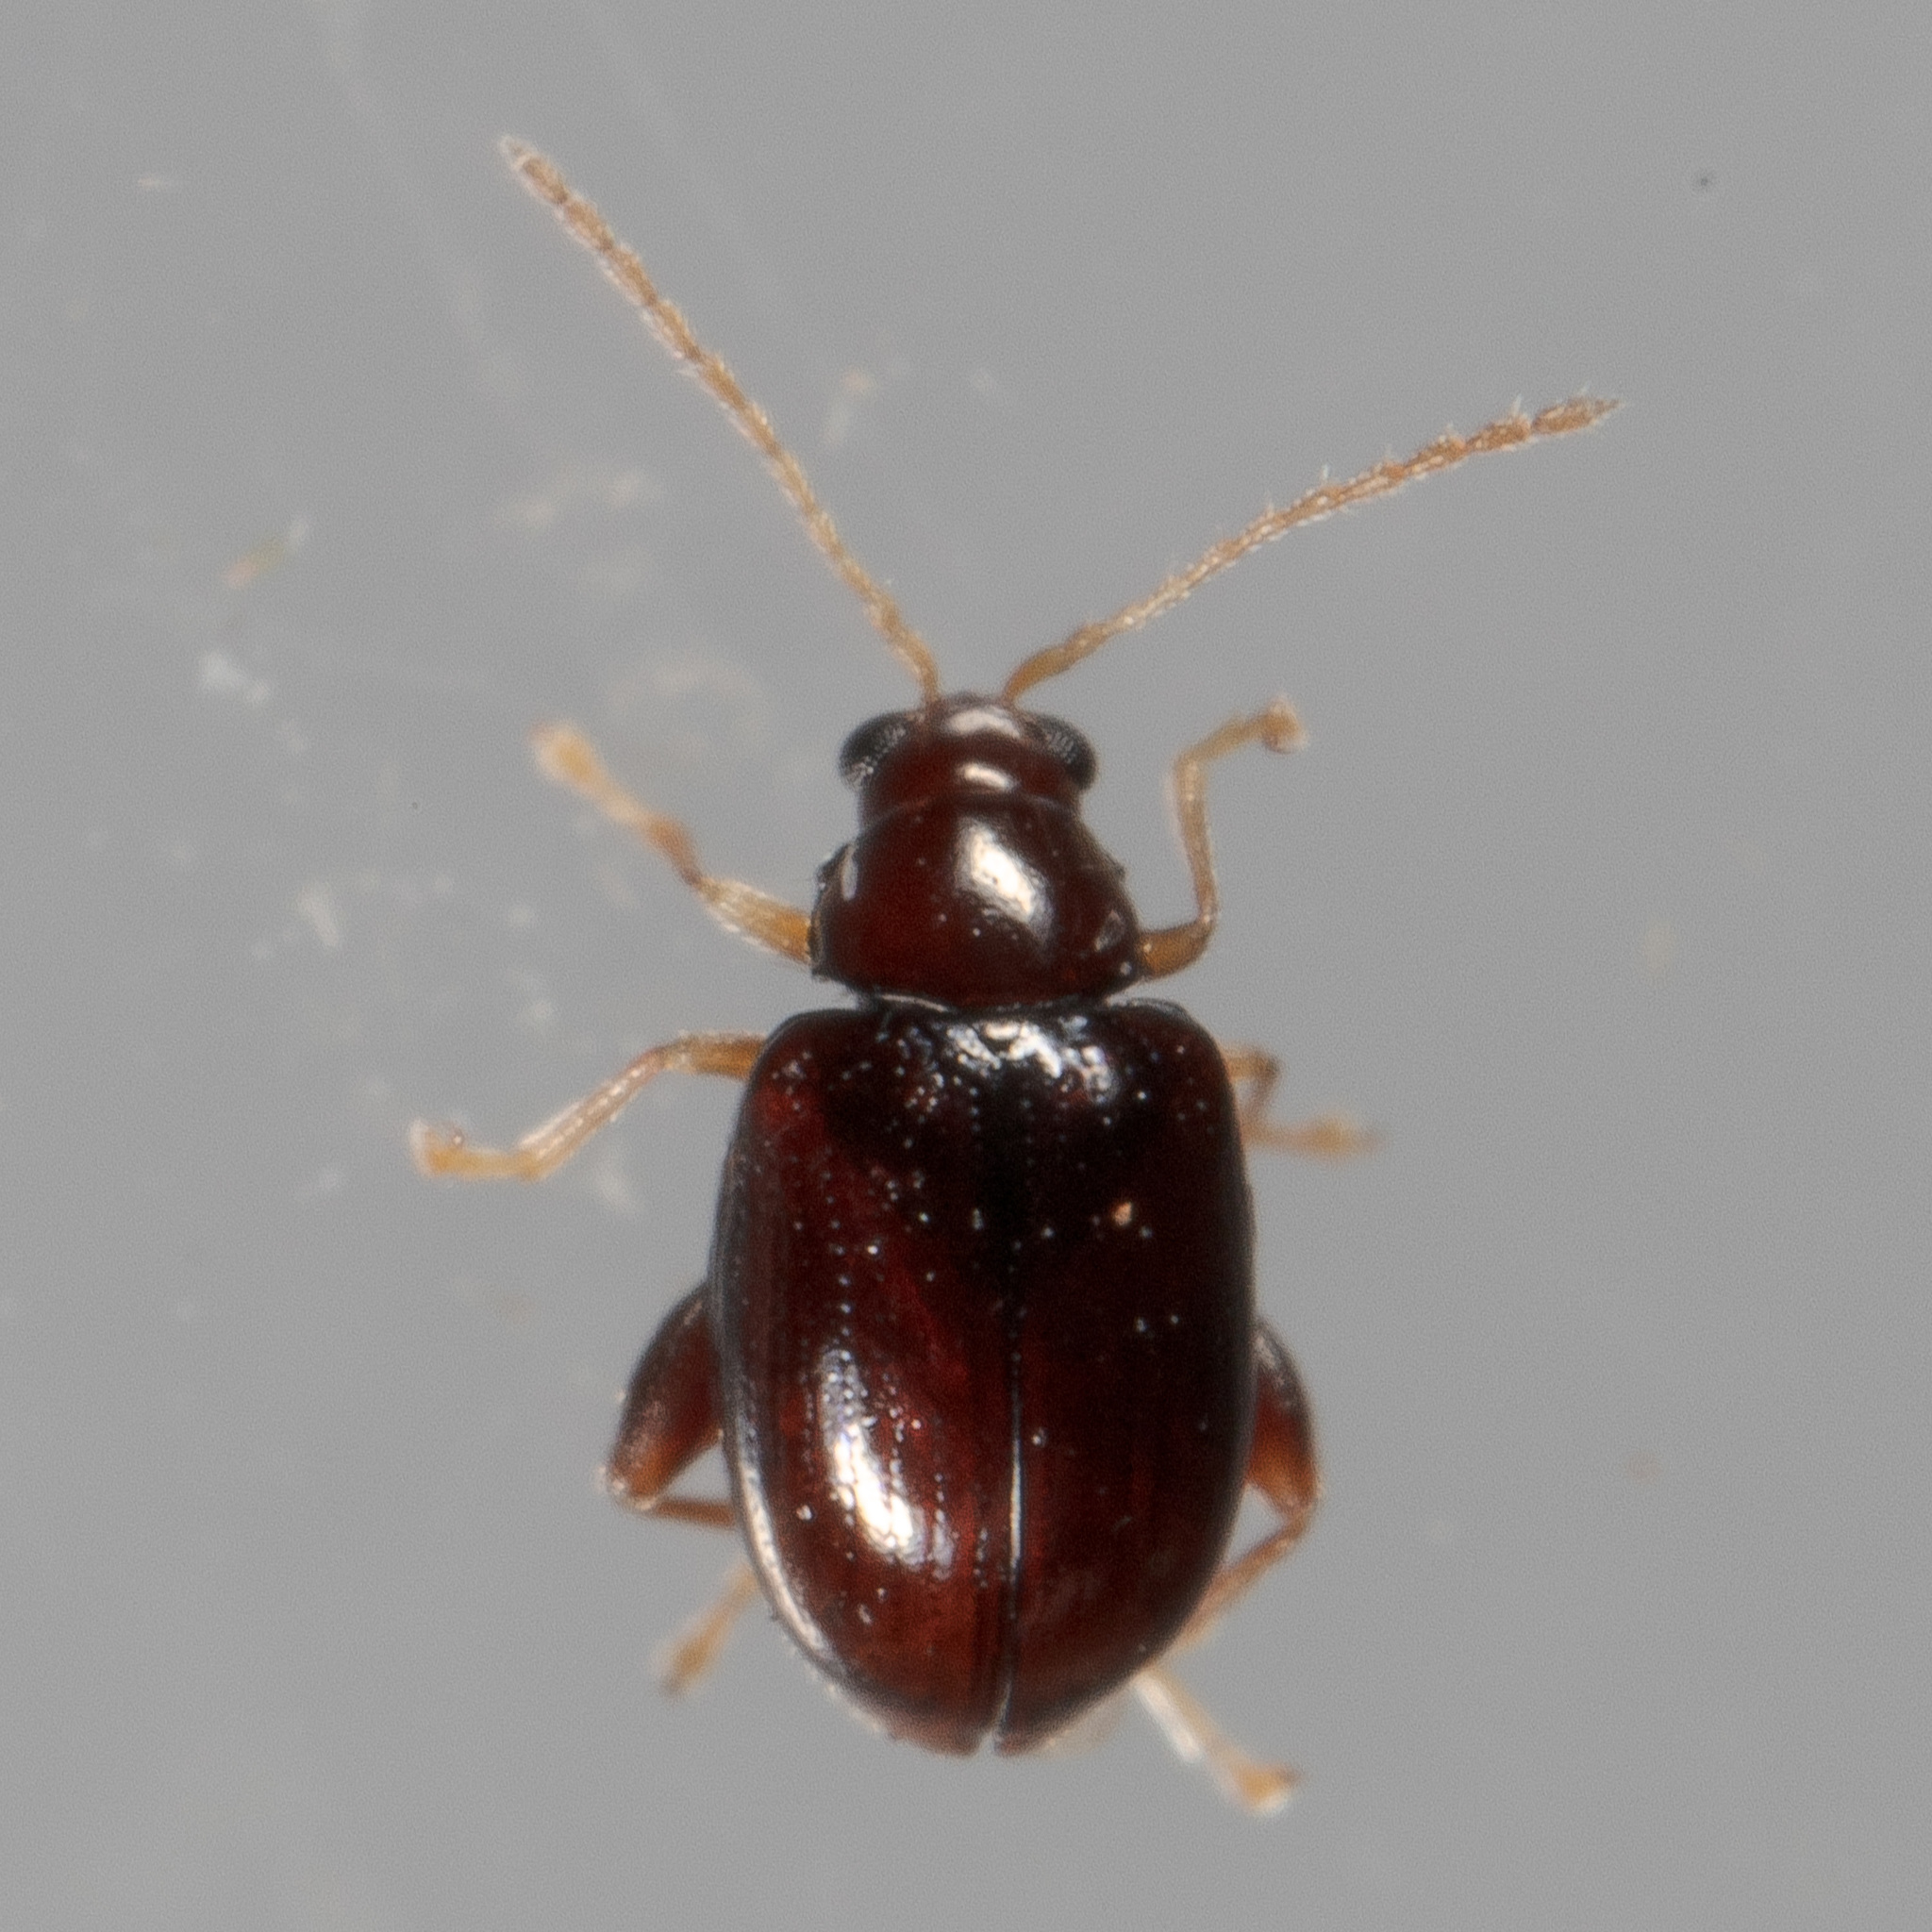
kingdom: Animalia
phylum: Arthropoda
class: Insecta
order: Coleoptera
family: Chrysomelidae
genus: Glyptina
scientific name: Glyptina brunnea
